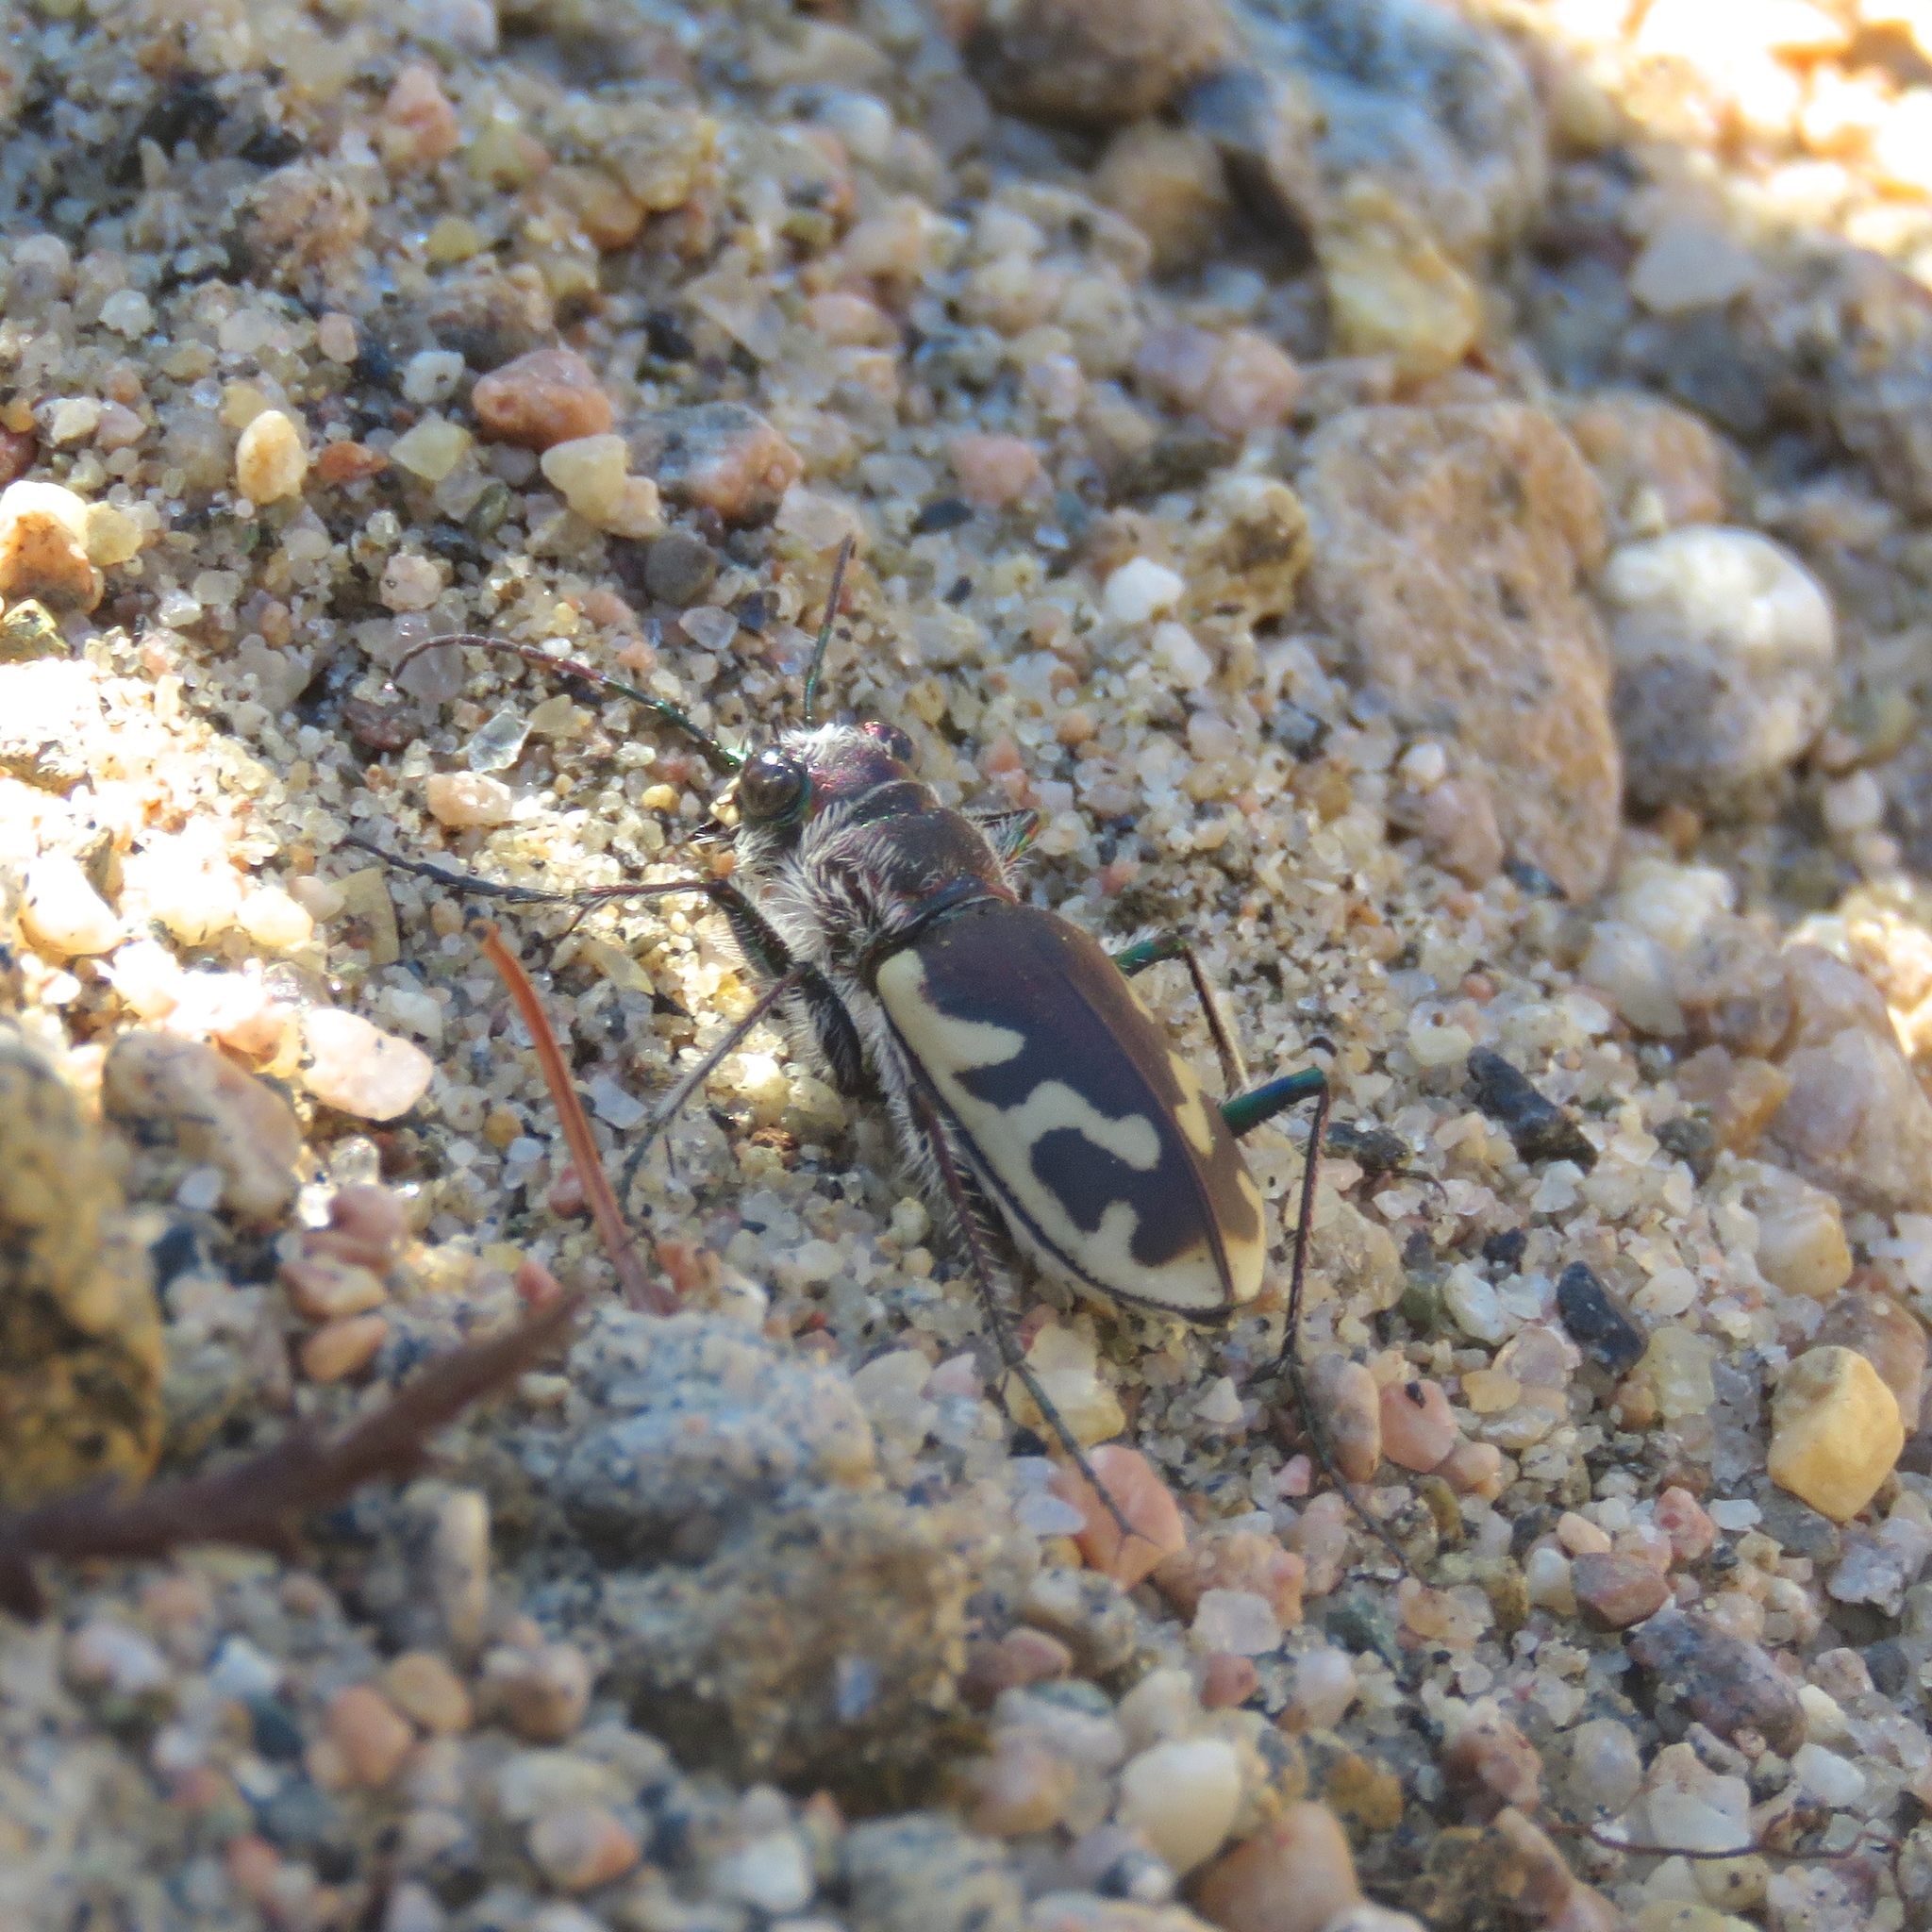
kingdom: Animalia
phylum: Arthropoda
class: Insecta
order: Coleoptera
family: Carabidae
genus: Cicindela
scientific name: Cicindela formosa
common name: Big sand tiger beetle
